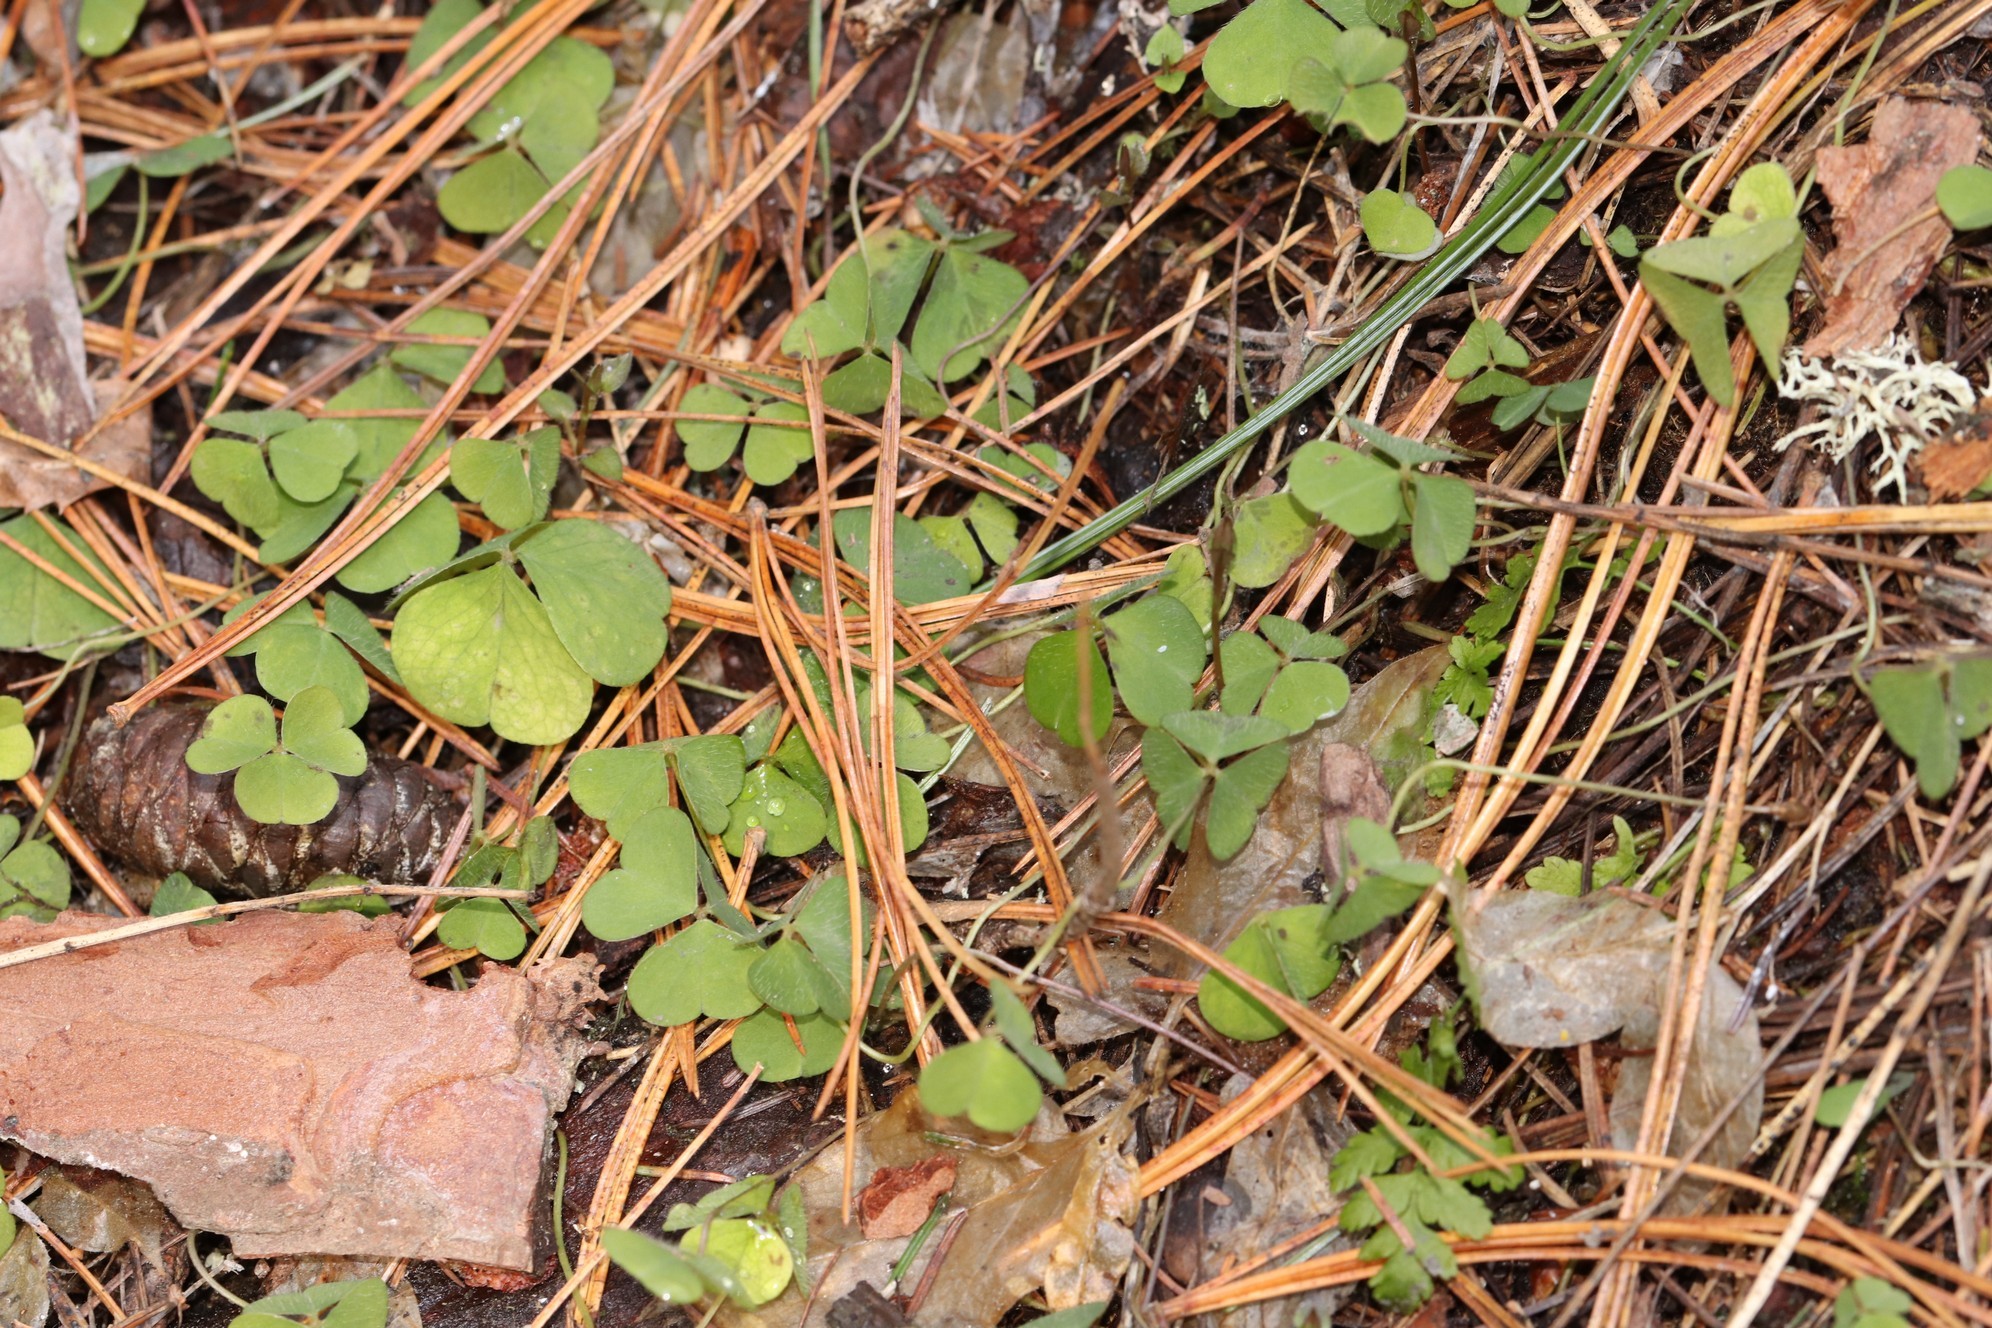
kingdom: Plantae
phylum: Tracheophyta
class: Magnoliopsida
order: Oxalidales
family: Oxalidaceae
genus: Oxalis
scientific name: Oxalis acetosella
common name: Wood-sorrel
